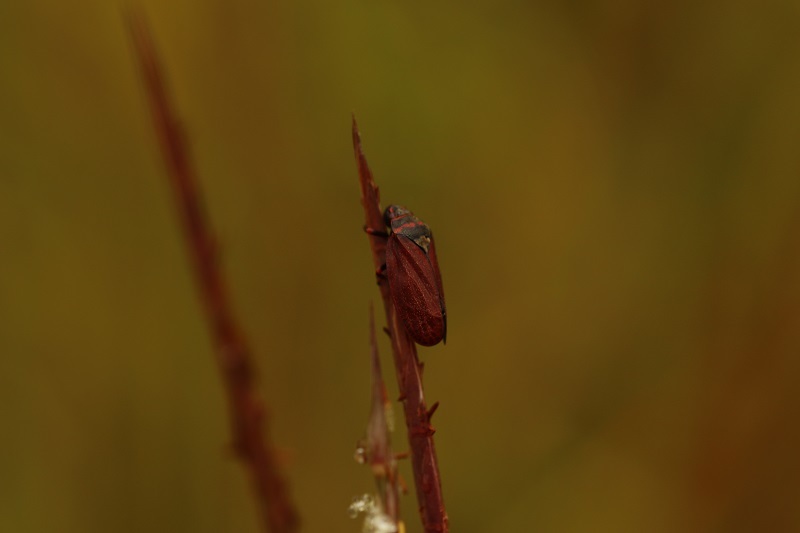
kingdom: Animalia
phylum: Arthropoda
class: Insecta
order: Hemiptera
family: Cercopidae
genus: Locris
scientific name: Locris transversa
